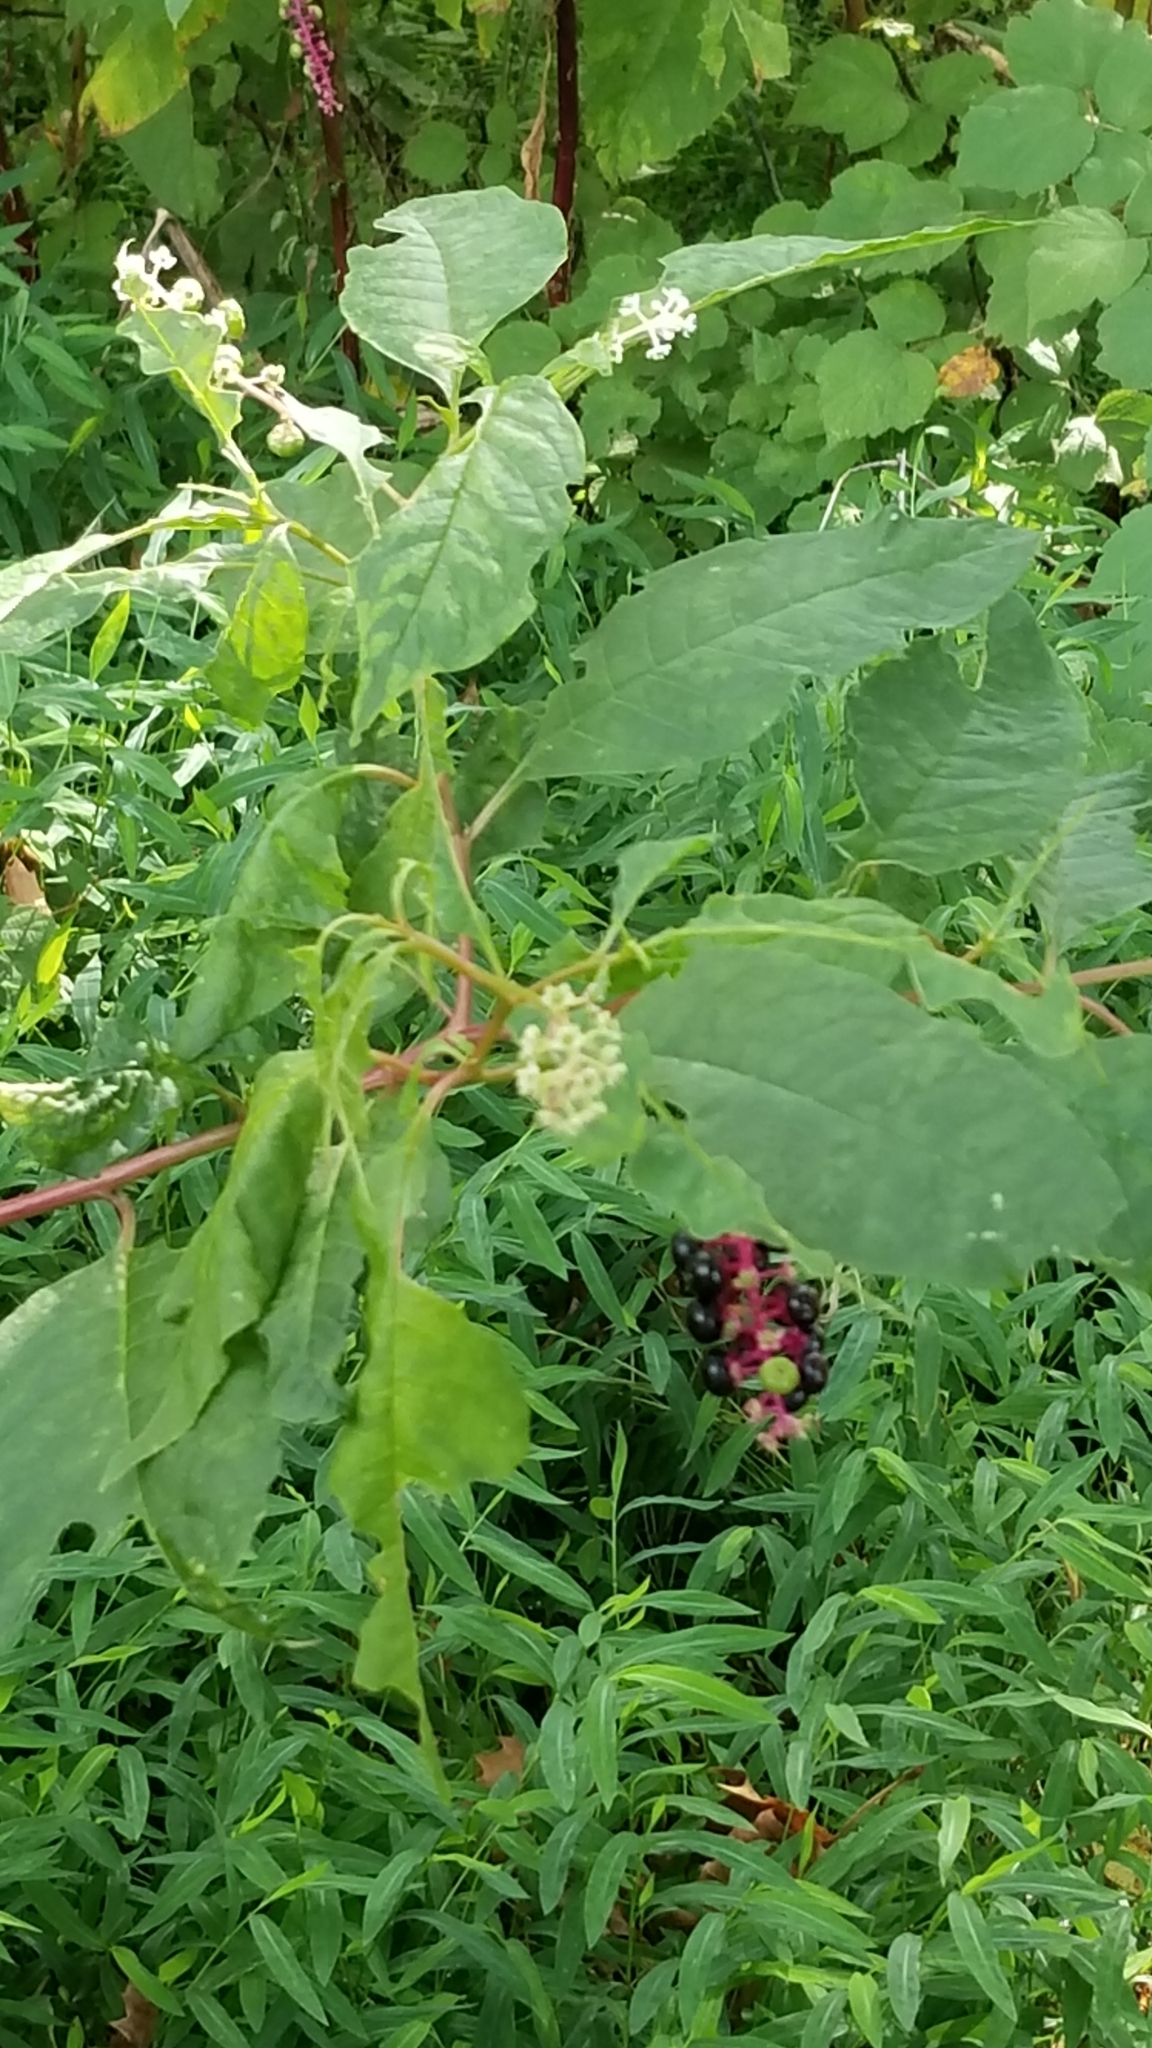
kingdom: Plantae
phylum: Tracheophyta
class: Magnoliopsida
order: Caryophyllales
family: Phytolaccaceae
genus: Phytolacca
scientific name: Phytolacca americana
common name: American pokeweed
